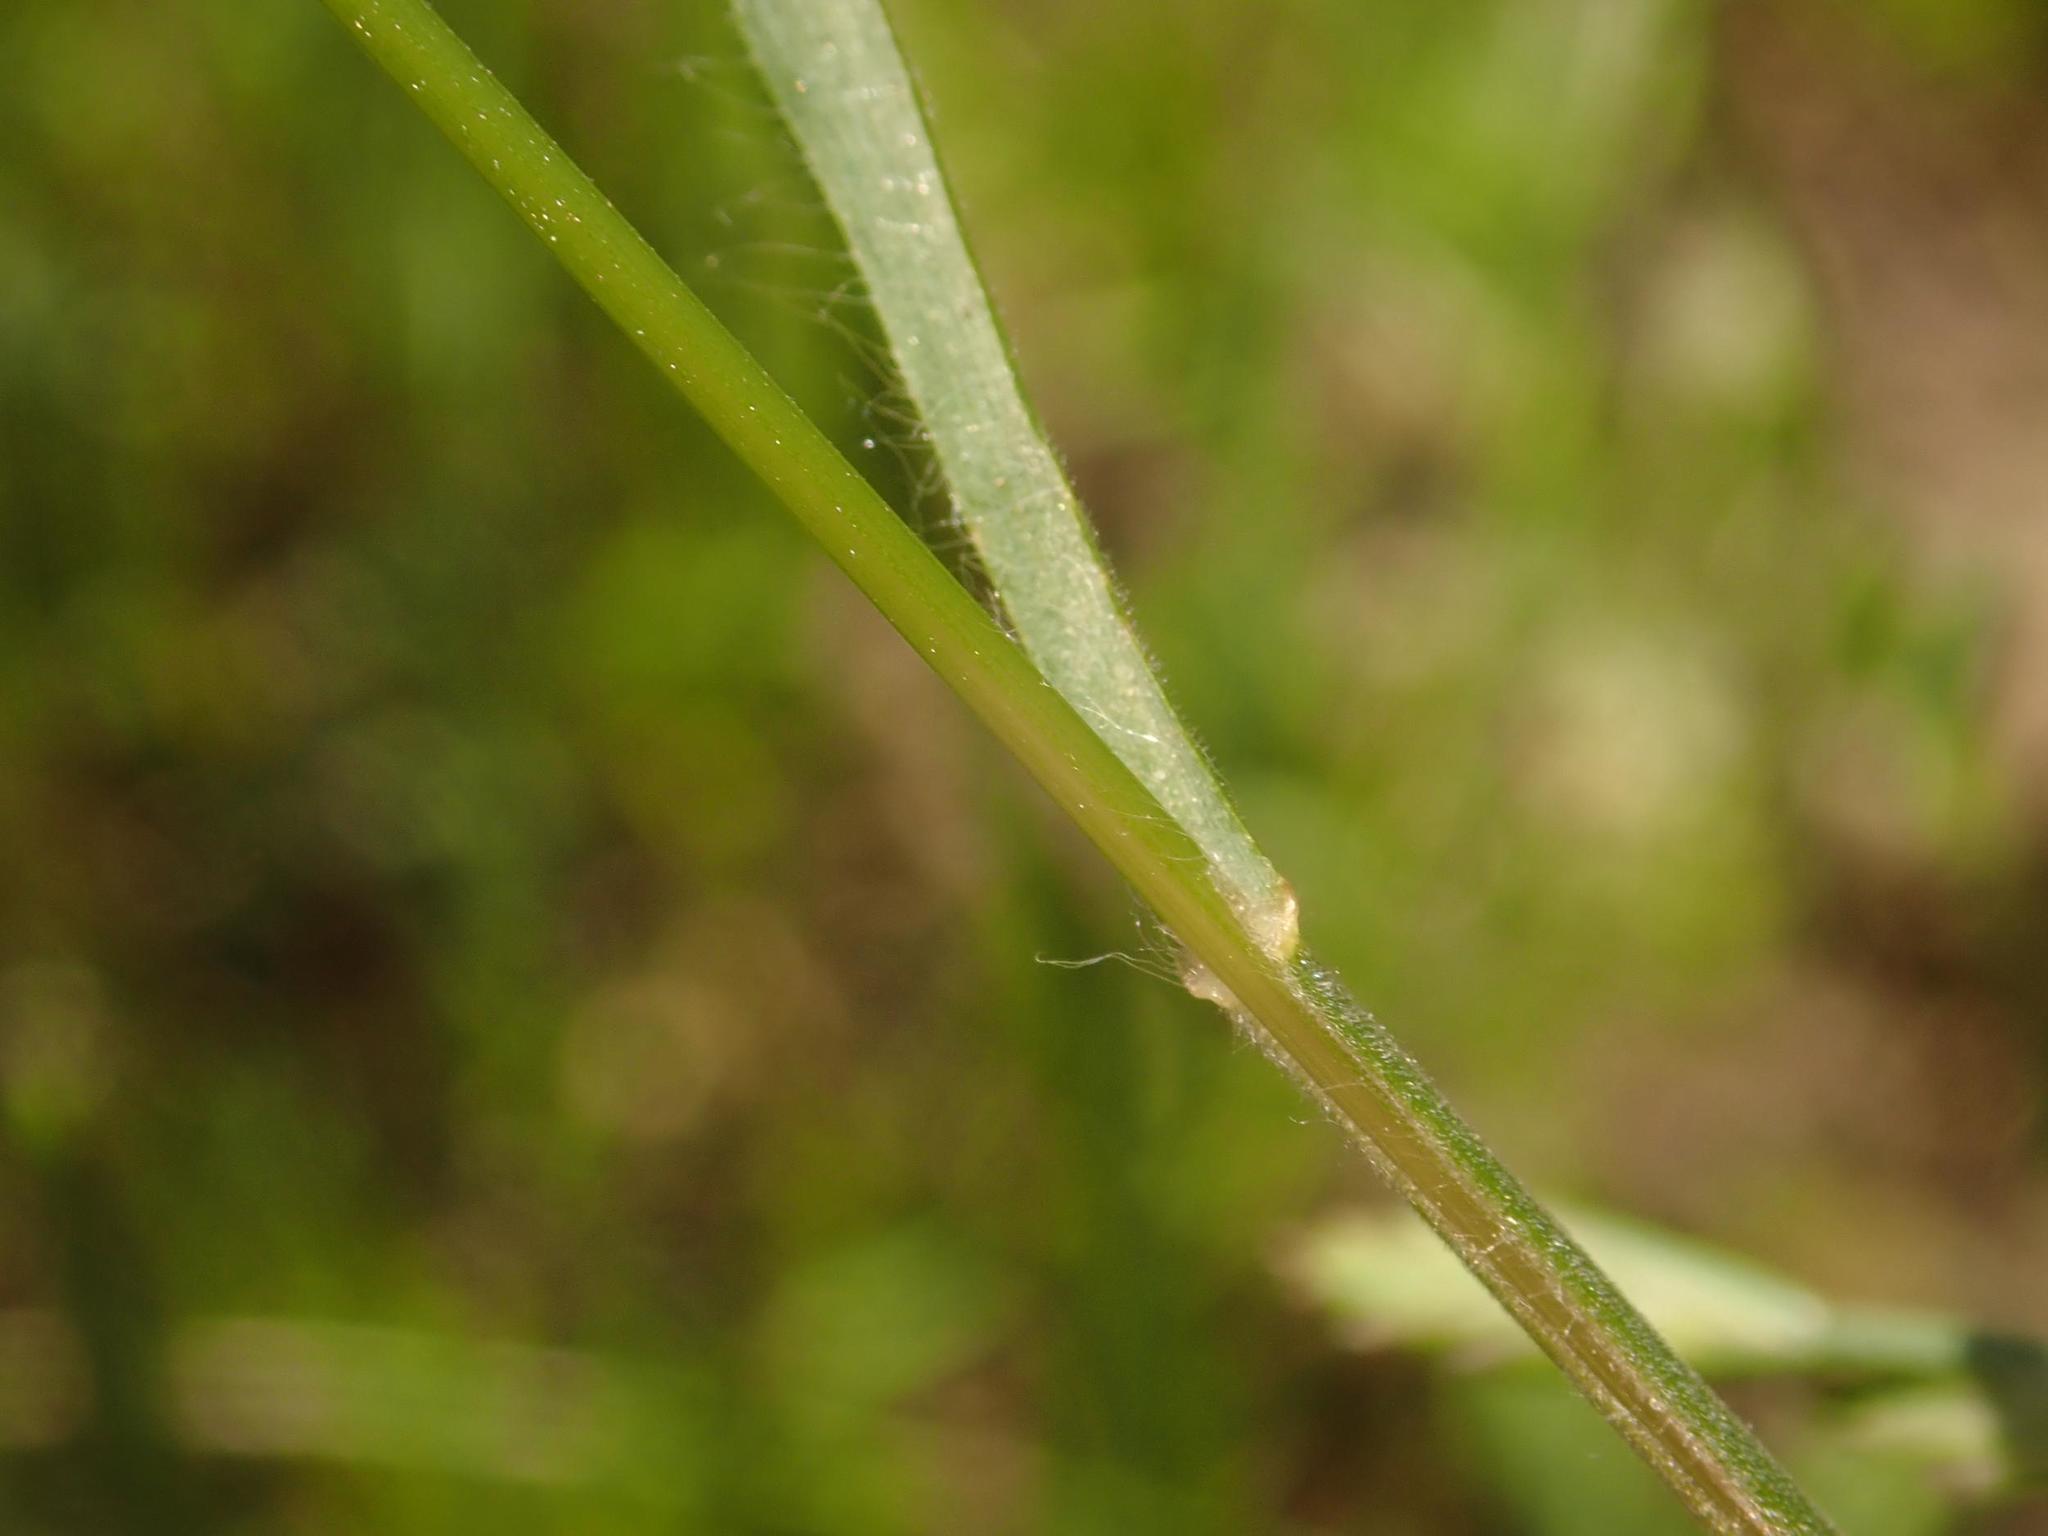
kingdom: Plantae
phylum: Tracheophyta
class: Liliopsida
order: Poales
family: Poaceae
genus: Bromus
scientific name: Bromus hordeaceus
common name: Soft brome
